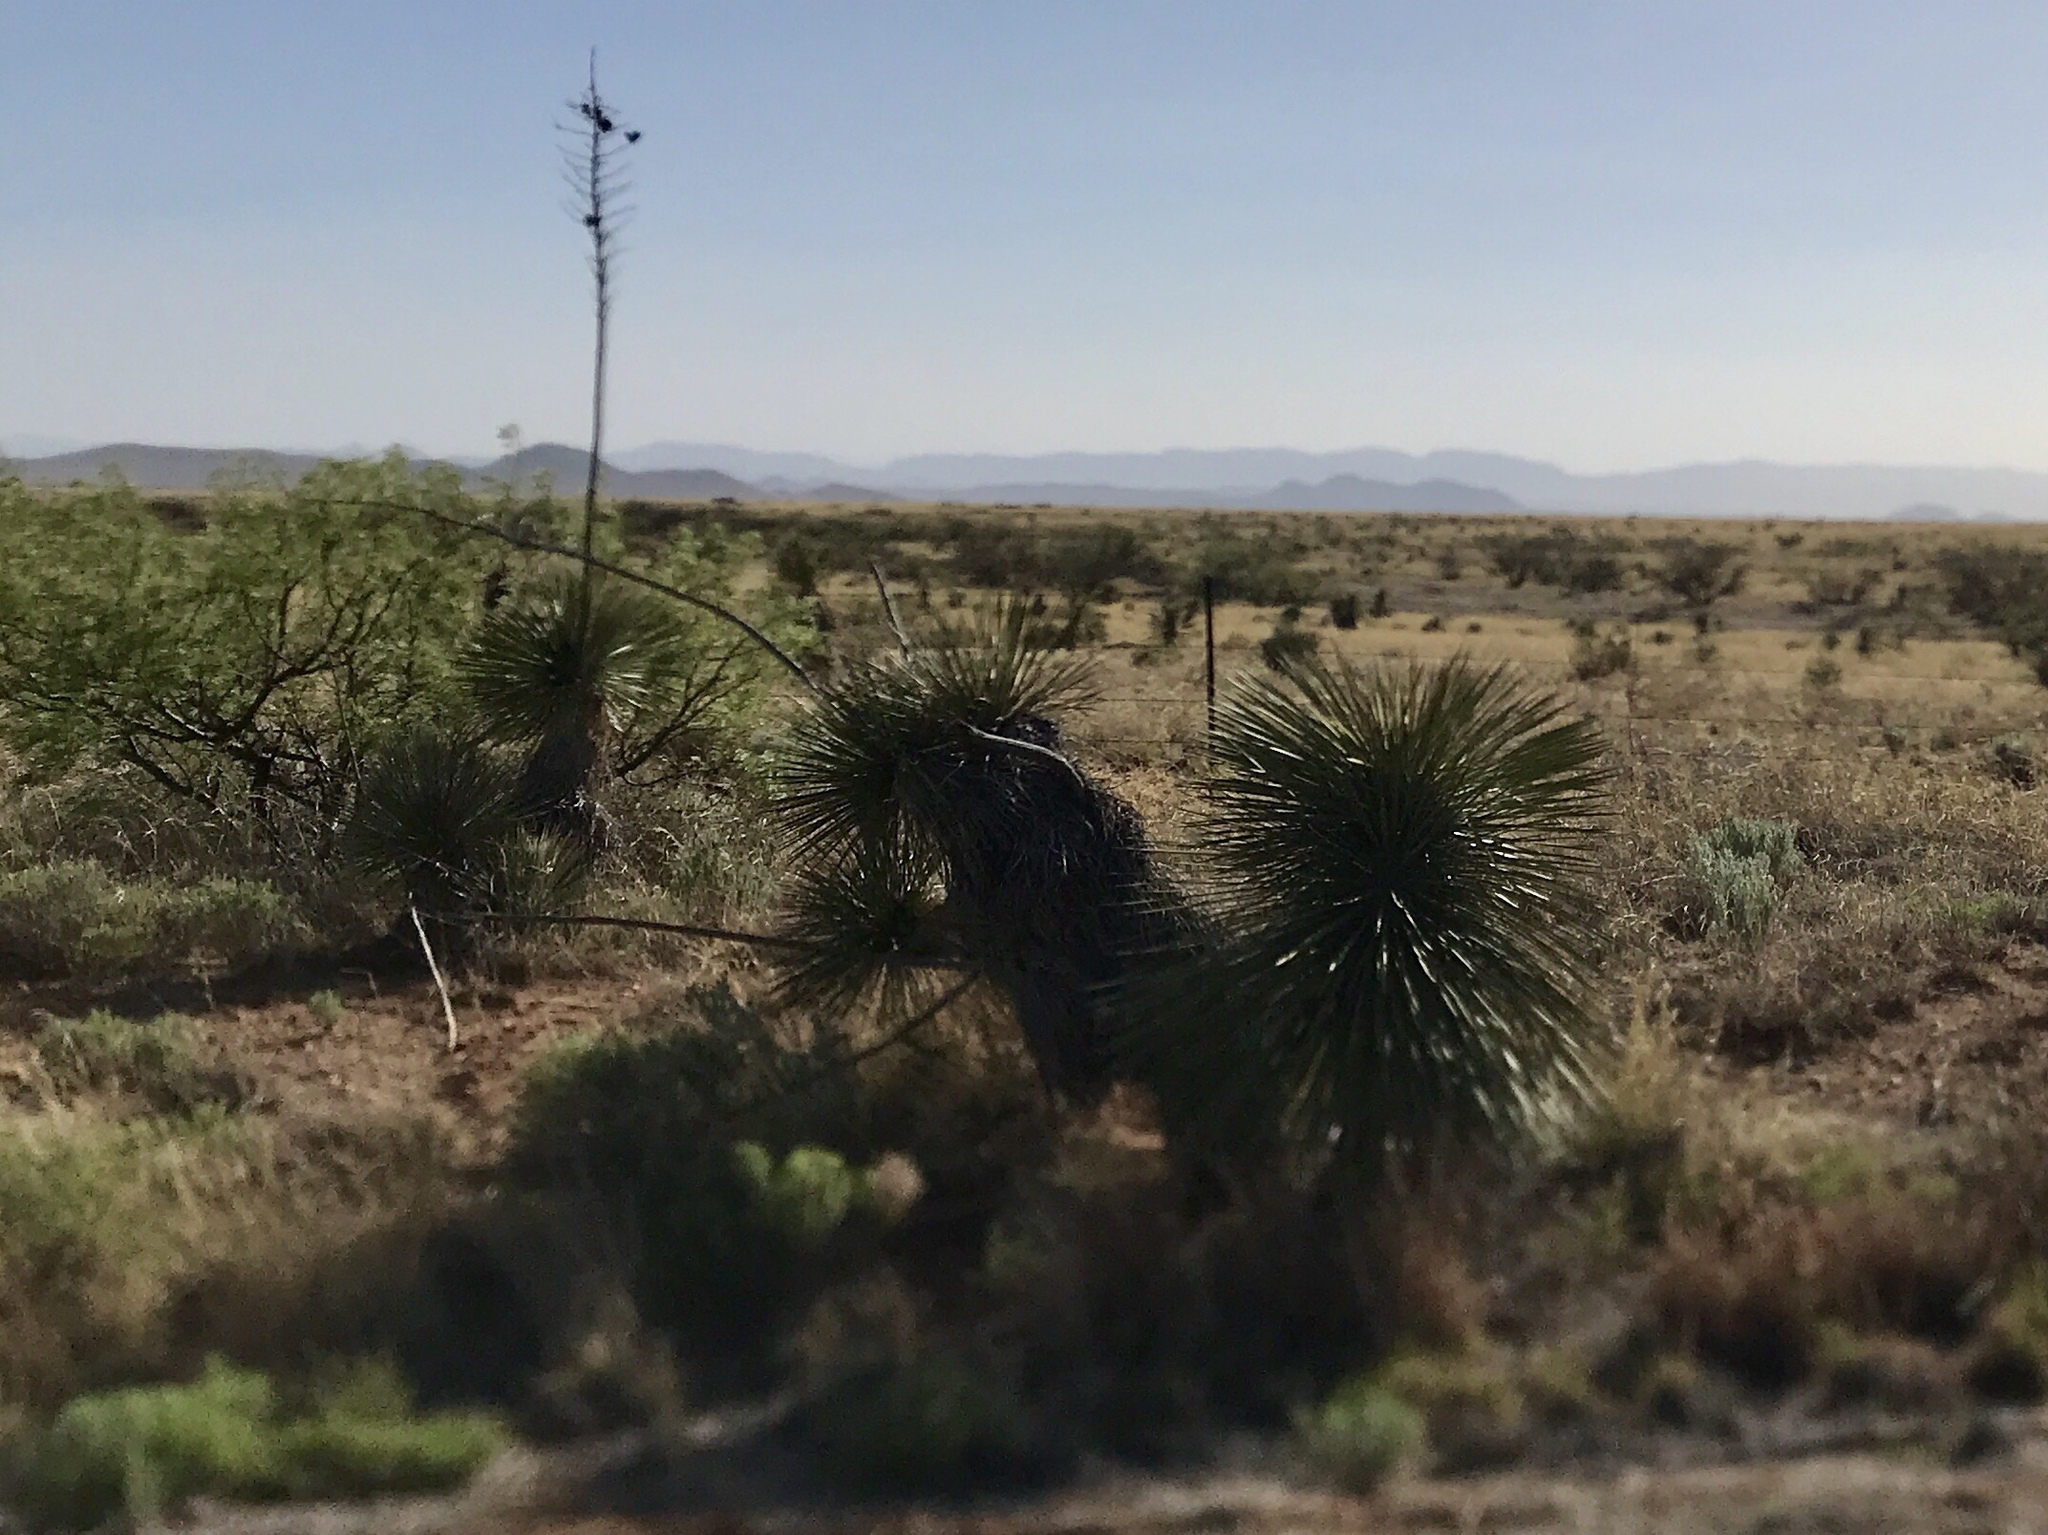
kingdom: Plantae
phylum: Tracheophyta
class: Liliopsida
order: Asparagales
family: Asparagaceae
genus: Yucca
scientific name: Yucca elata
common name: Palmella
